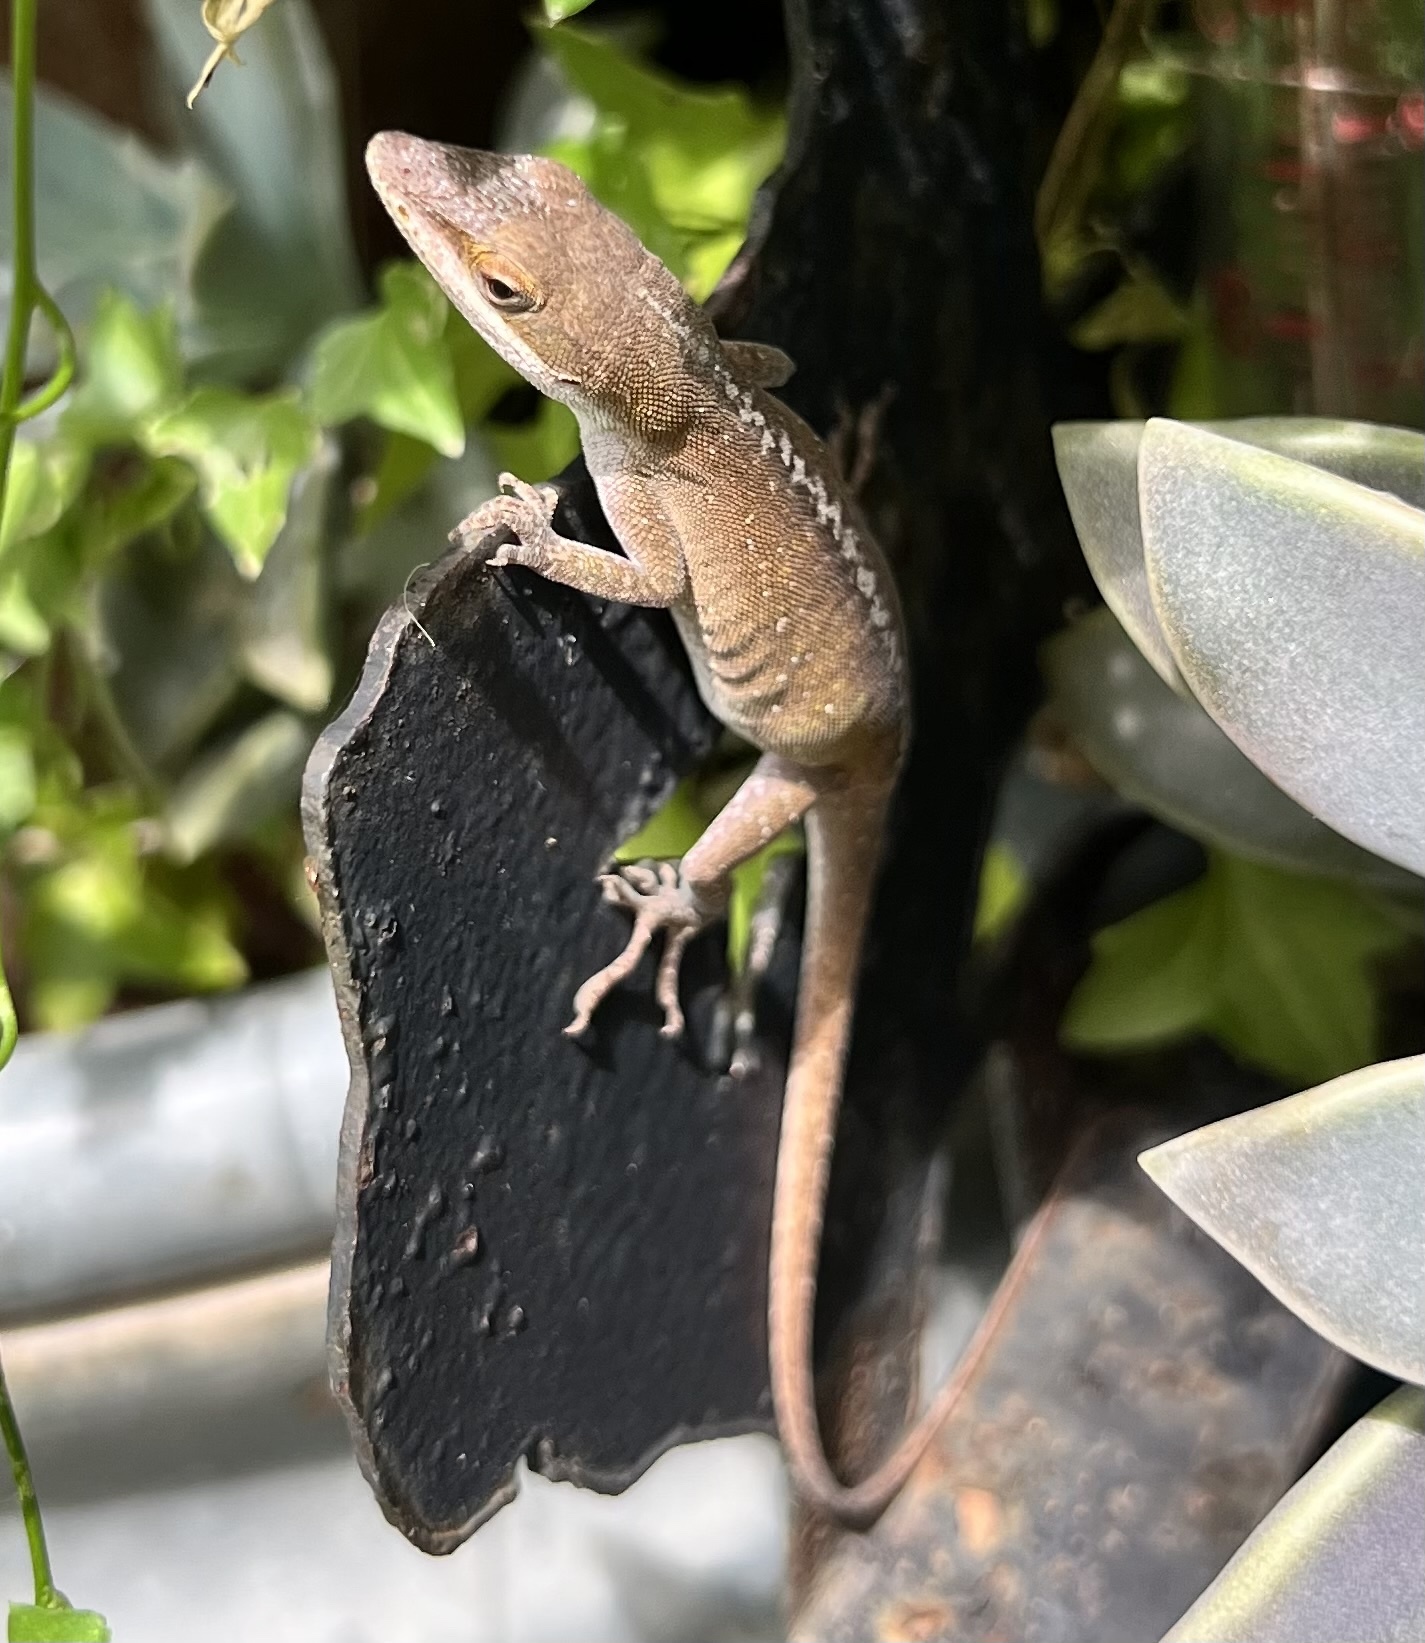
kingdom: Animalia
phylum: Chordata
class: Squamata
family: Dactyloidae
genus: Anolis
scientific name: Anolis carolinensis
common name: Green anole
